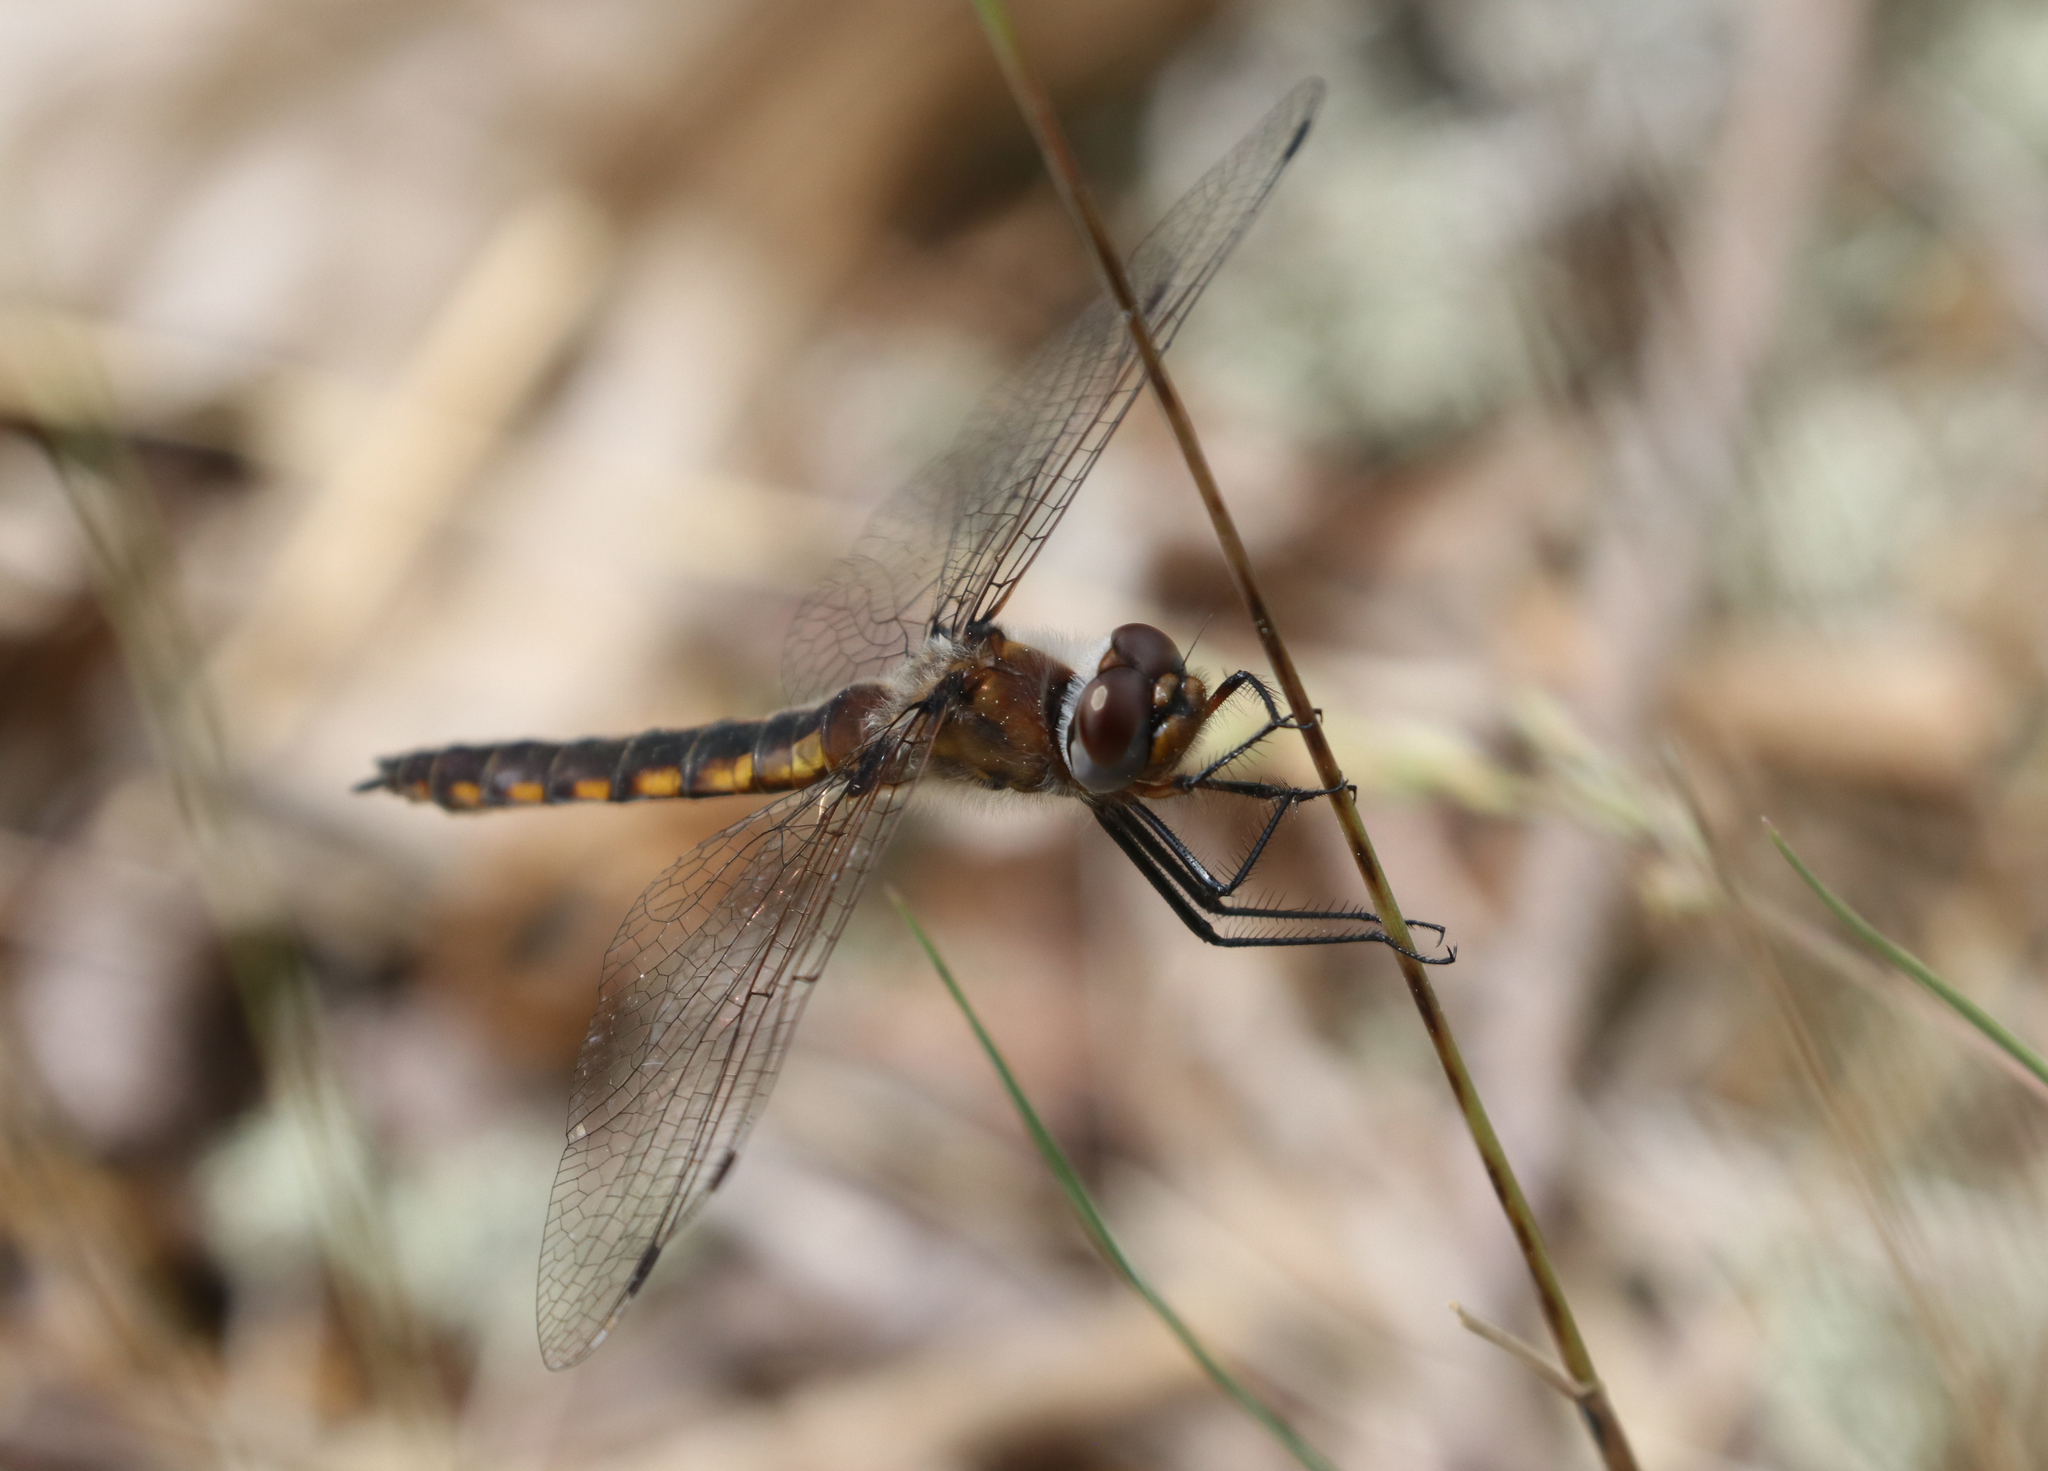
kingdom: Animalia
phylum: Arthropoda
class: Insecta
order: Odonata
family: Corduliidae
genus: Epitheca
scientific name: Epitheca semiaquea
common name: Mantled baskettail
